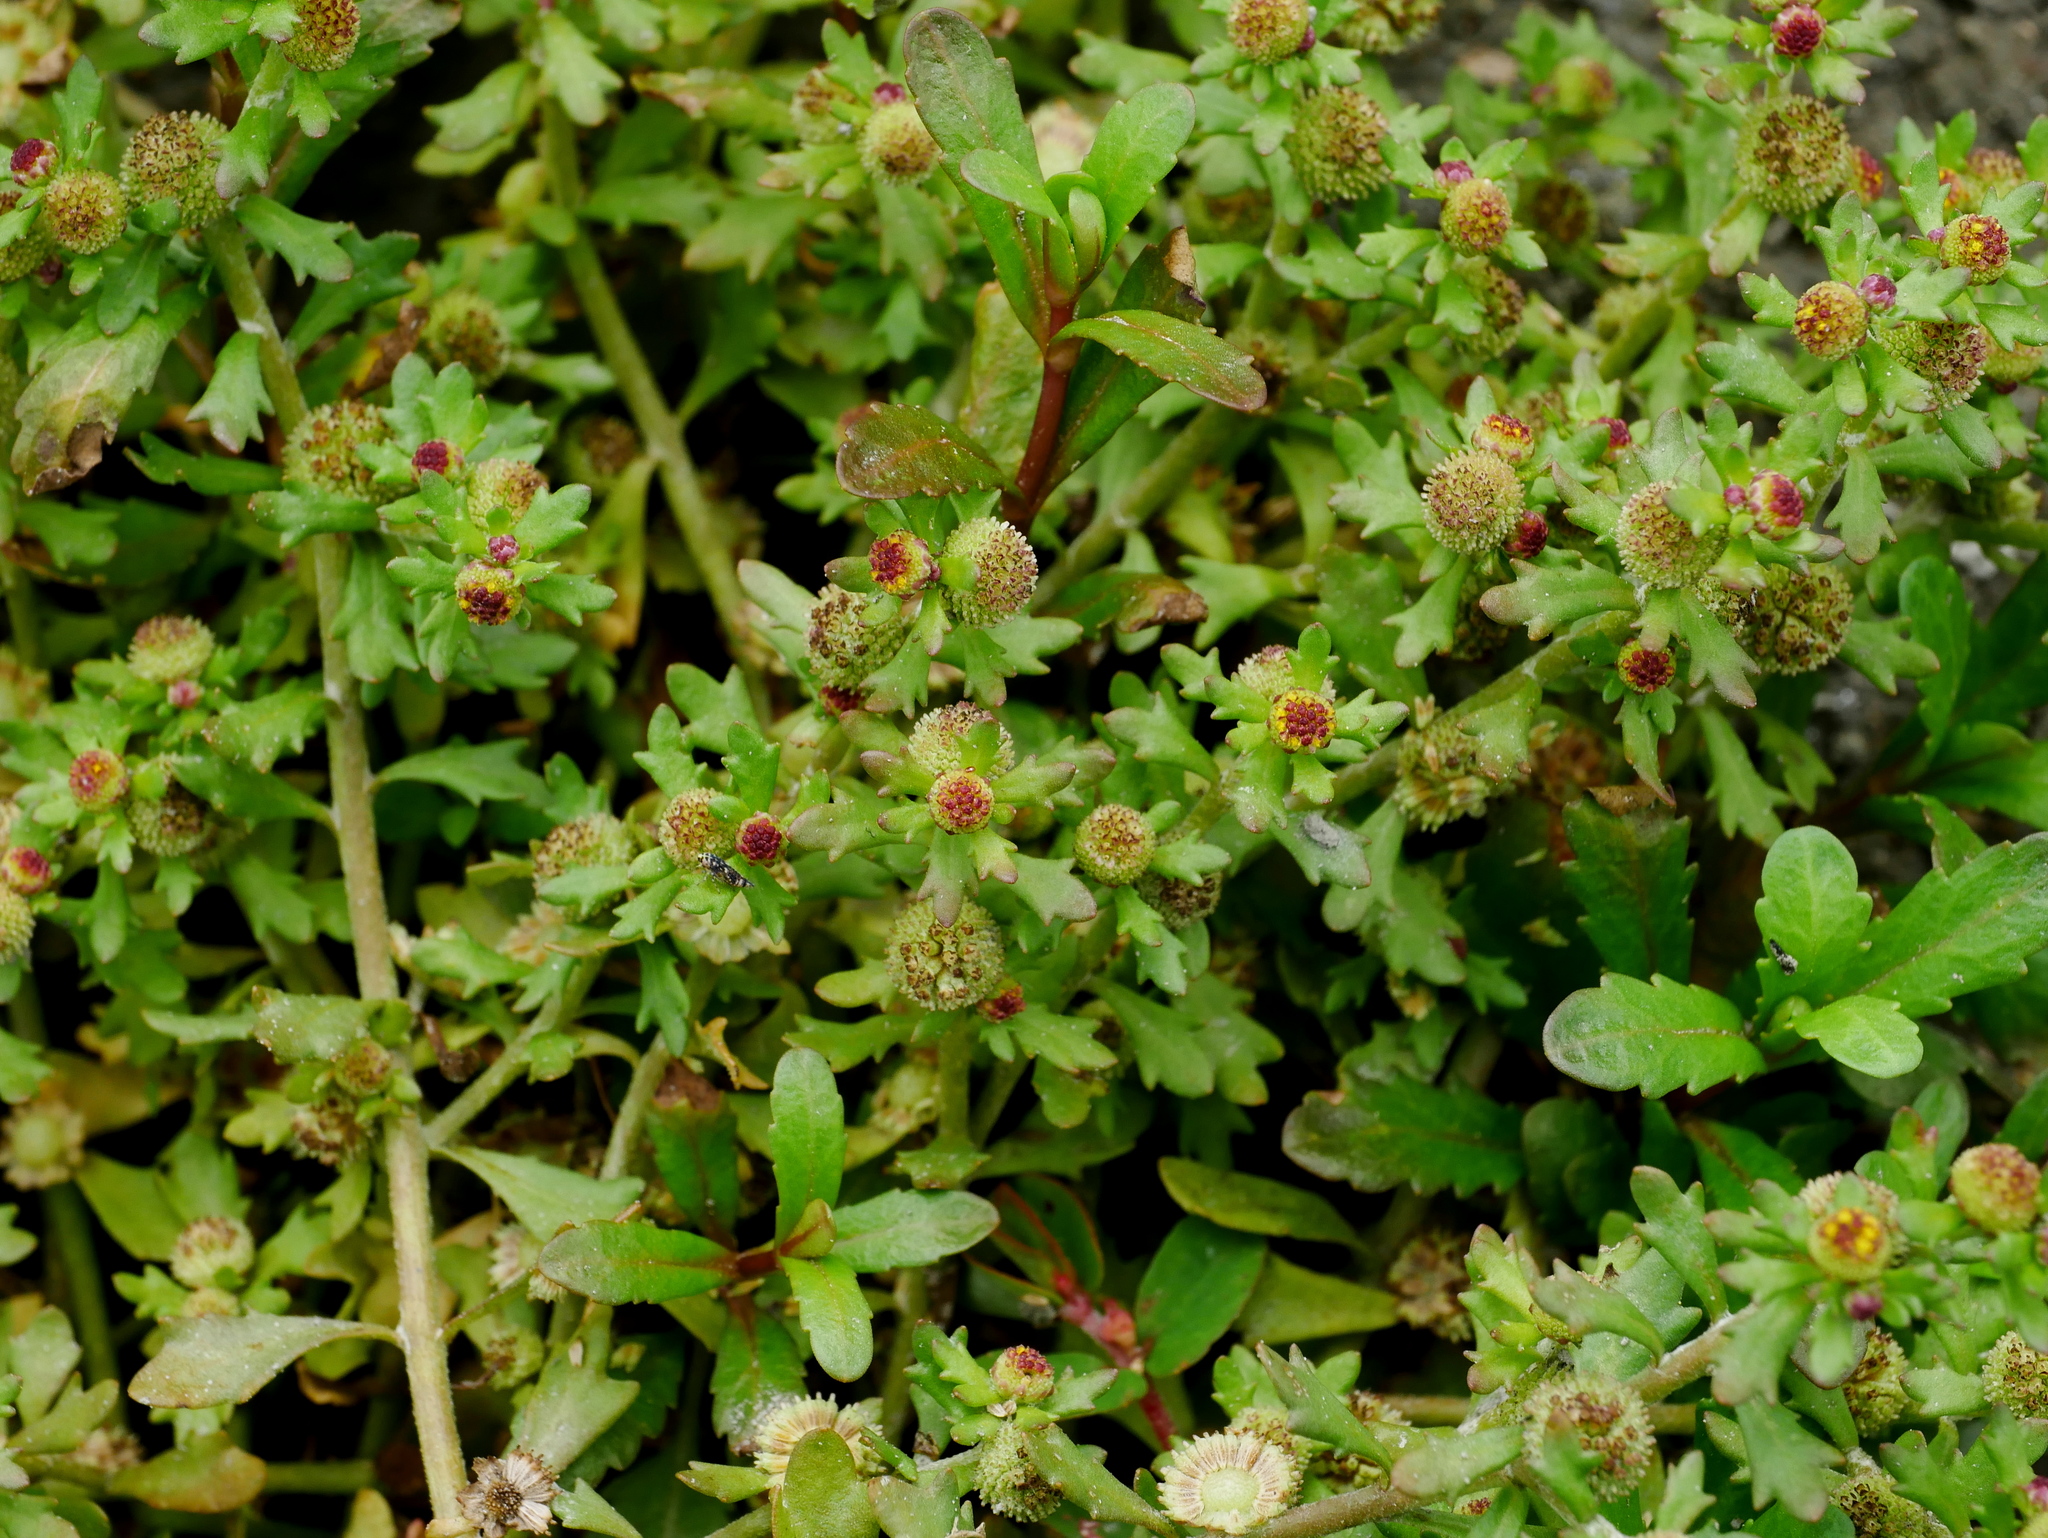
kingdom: Plantae
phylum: Tracheophyta
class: Magnoliopsida
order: Asterales
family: Asteraceae
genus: Centipeda
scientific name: Centipeda minima
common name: Spreading sneezeweed
